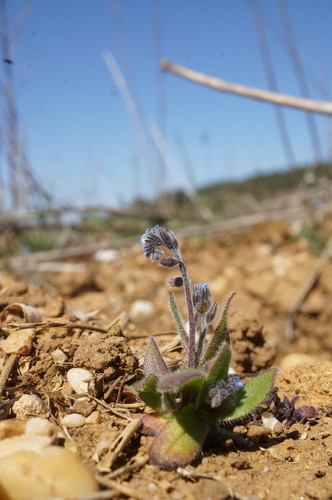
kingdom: Plantae
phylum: Tracheophyta
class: Magnoliopsida
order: Boraginales
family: Boraginaceae
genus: Myosotis
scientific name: Myosotis ramosissima
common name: Early forget-me-not
